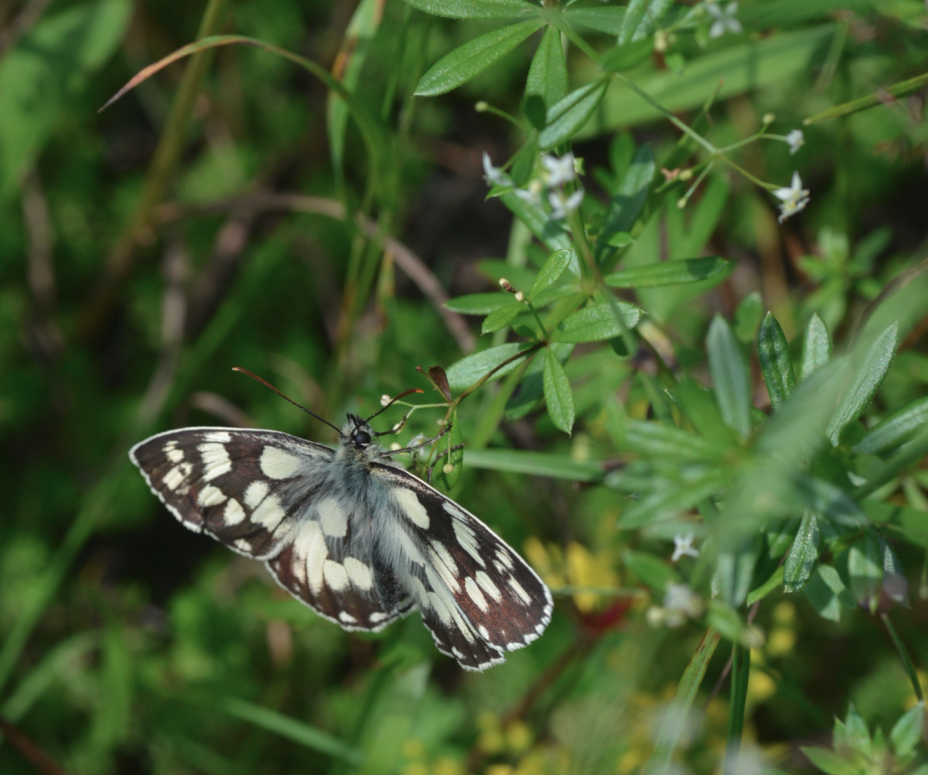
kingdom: Animalia
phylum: Arthropoda
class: Insecta
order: Lepidoptera
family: Nymphalidae
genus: Melanargia
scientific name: Melanargia galathea
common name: Marbled white
